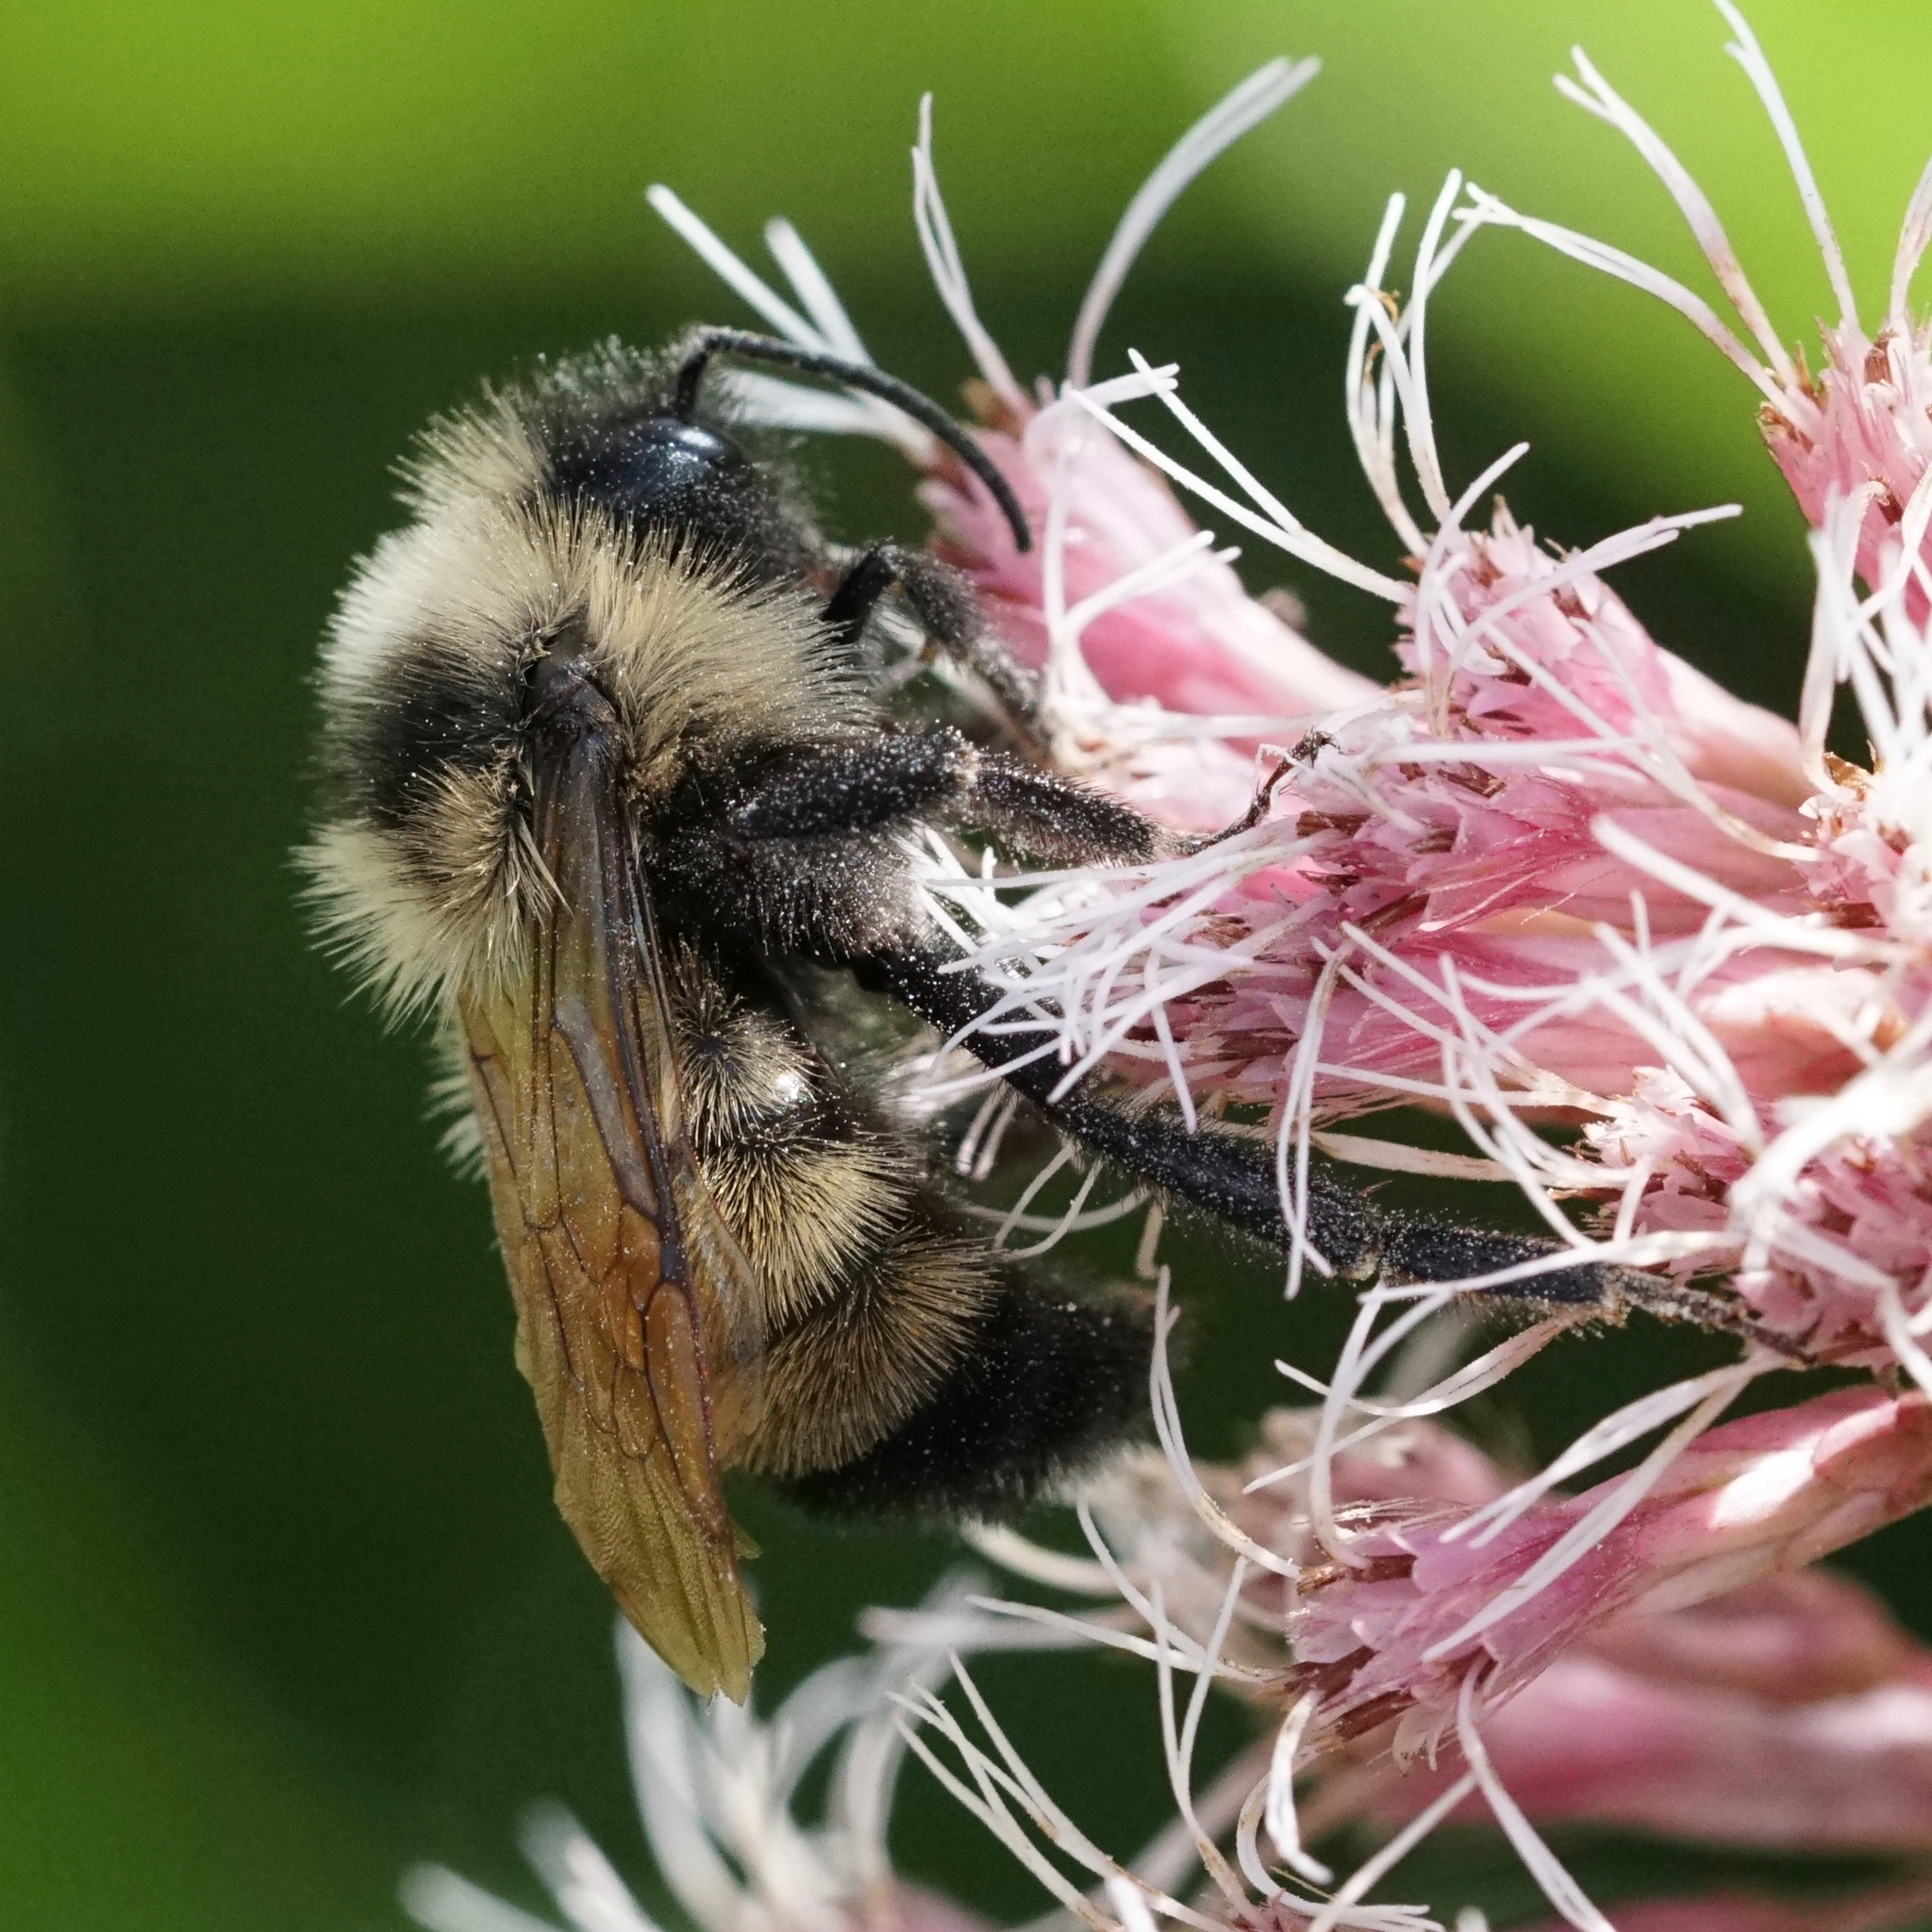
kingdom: Animalia
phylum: Arthropoda
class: Insecta
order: Hymenoptera
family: Apidae
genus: Bombus
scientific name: Bombus citrinus
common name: Lemon cuckoo bumble bee
